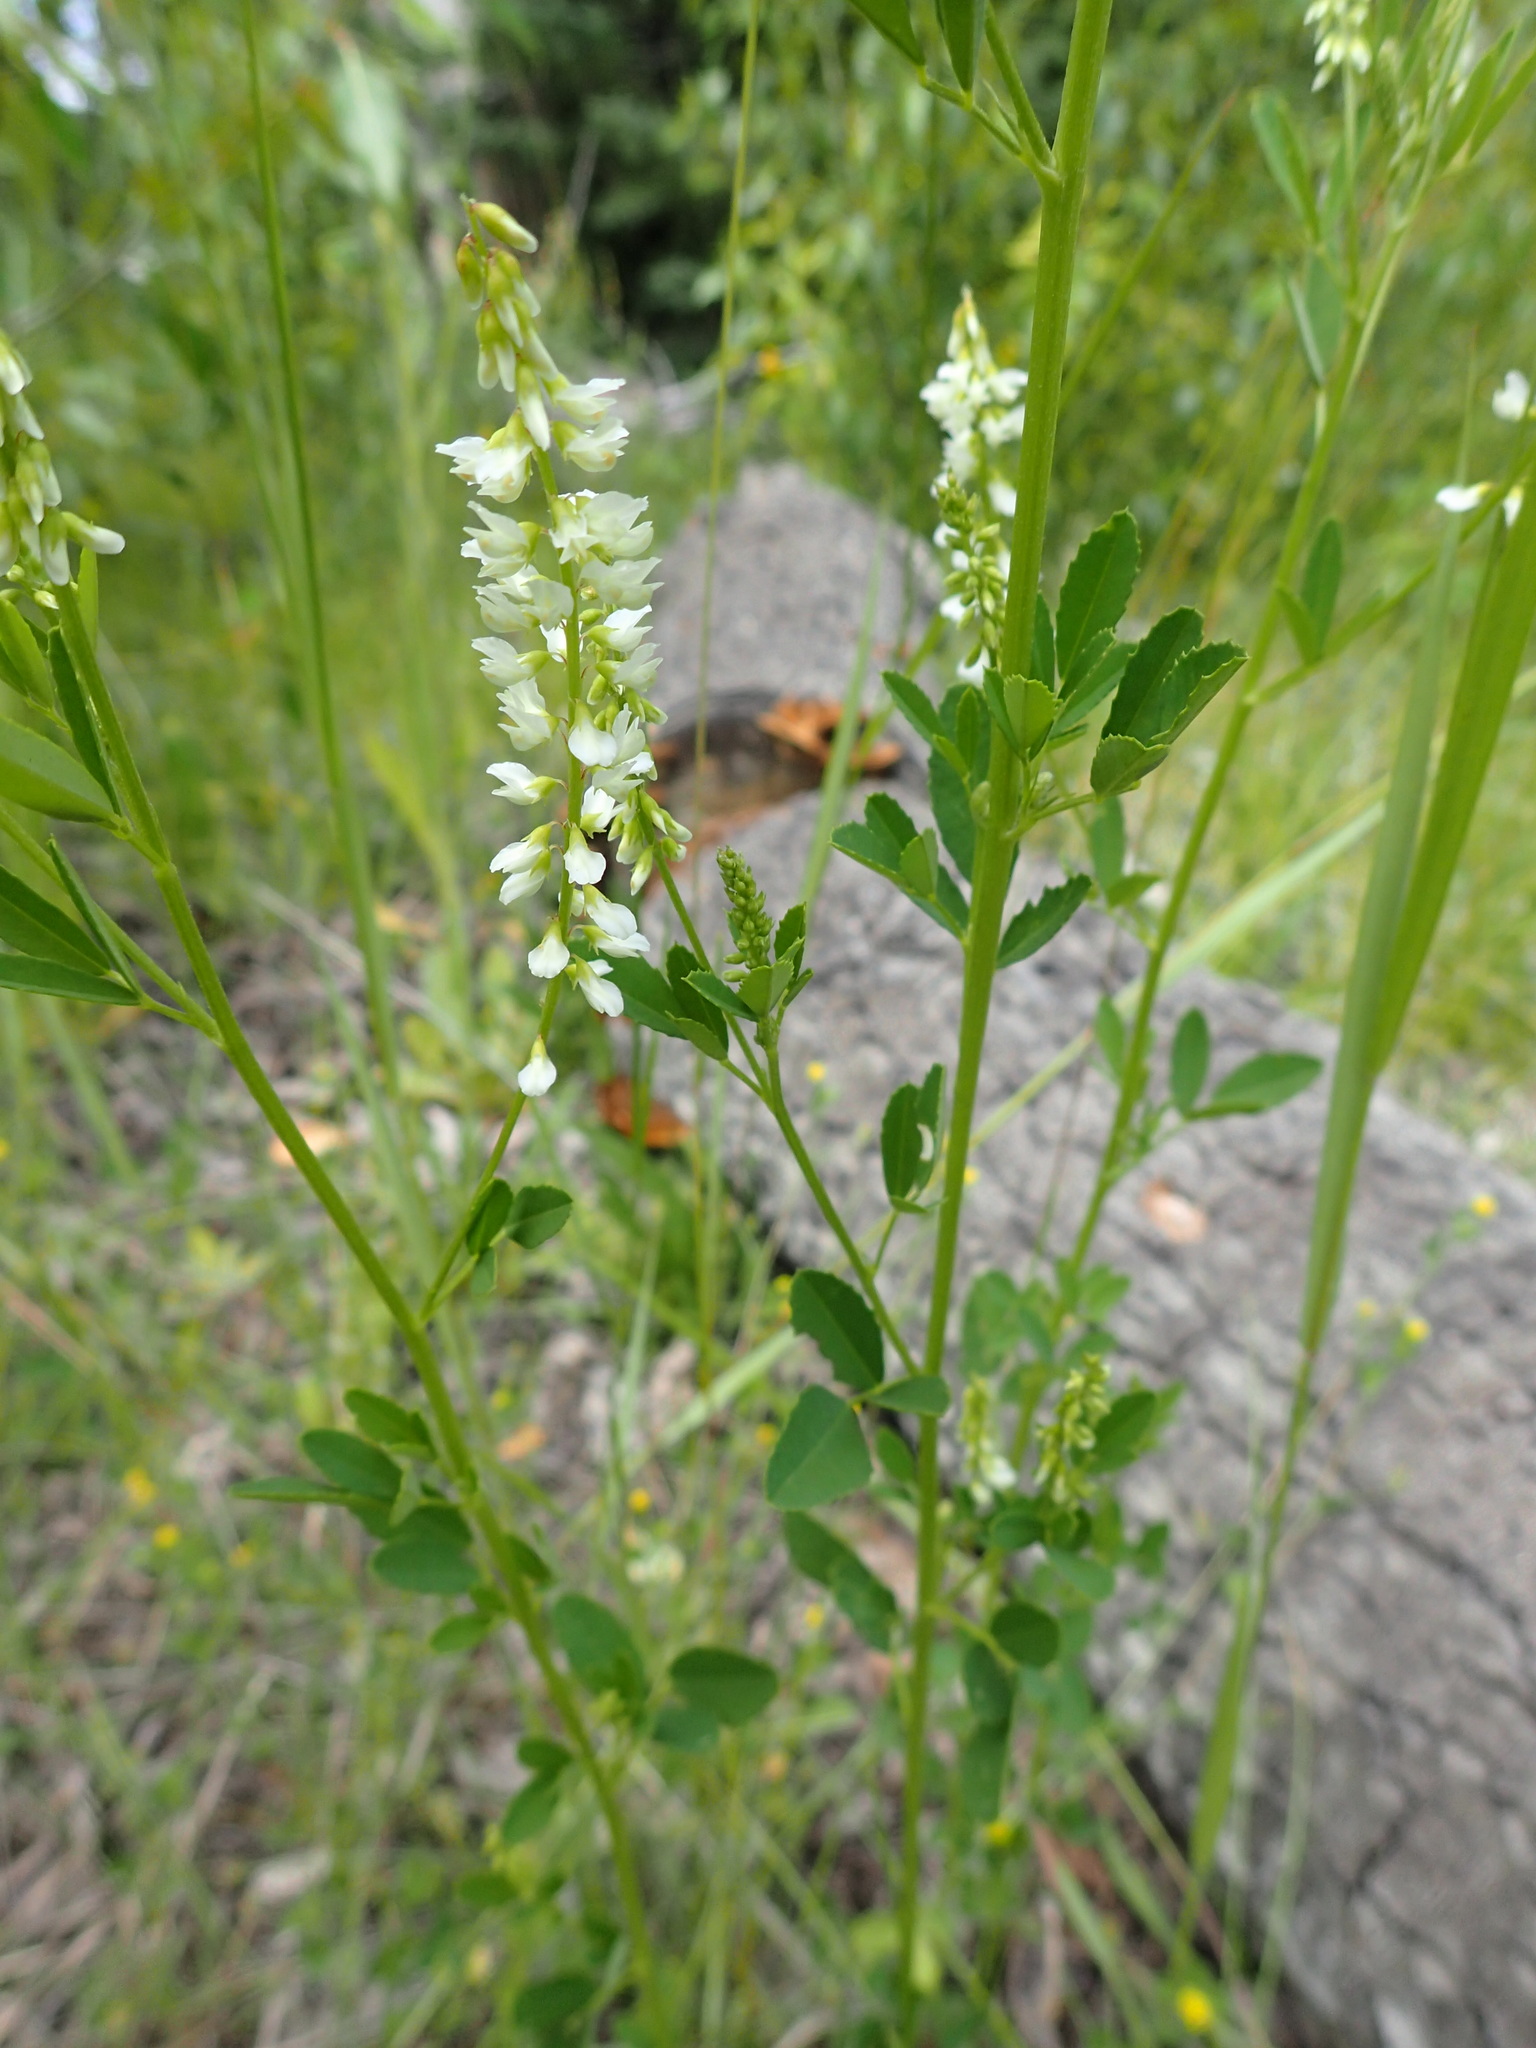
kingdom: Plantae
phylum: Tracheophyta
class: Magnoliopsida
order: Fabales
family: Fabaceae
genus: Melilotus
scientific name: Melilotus albus
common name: White melilot
